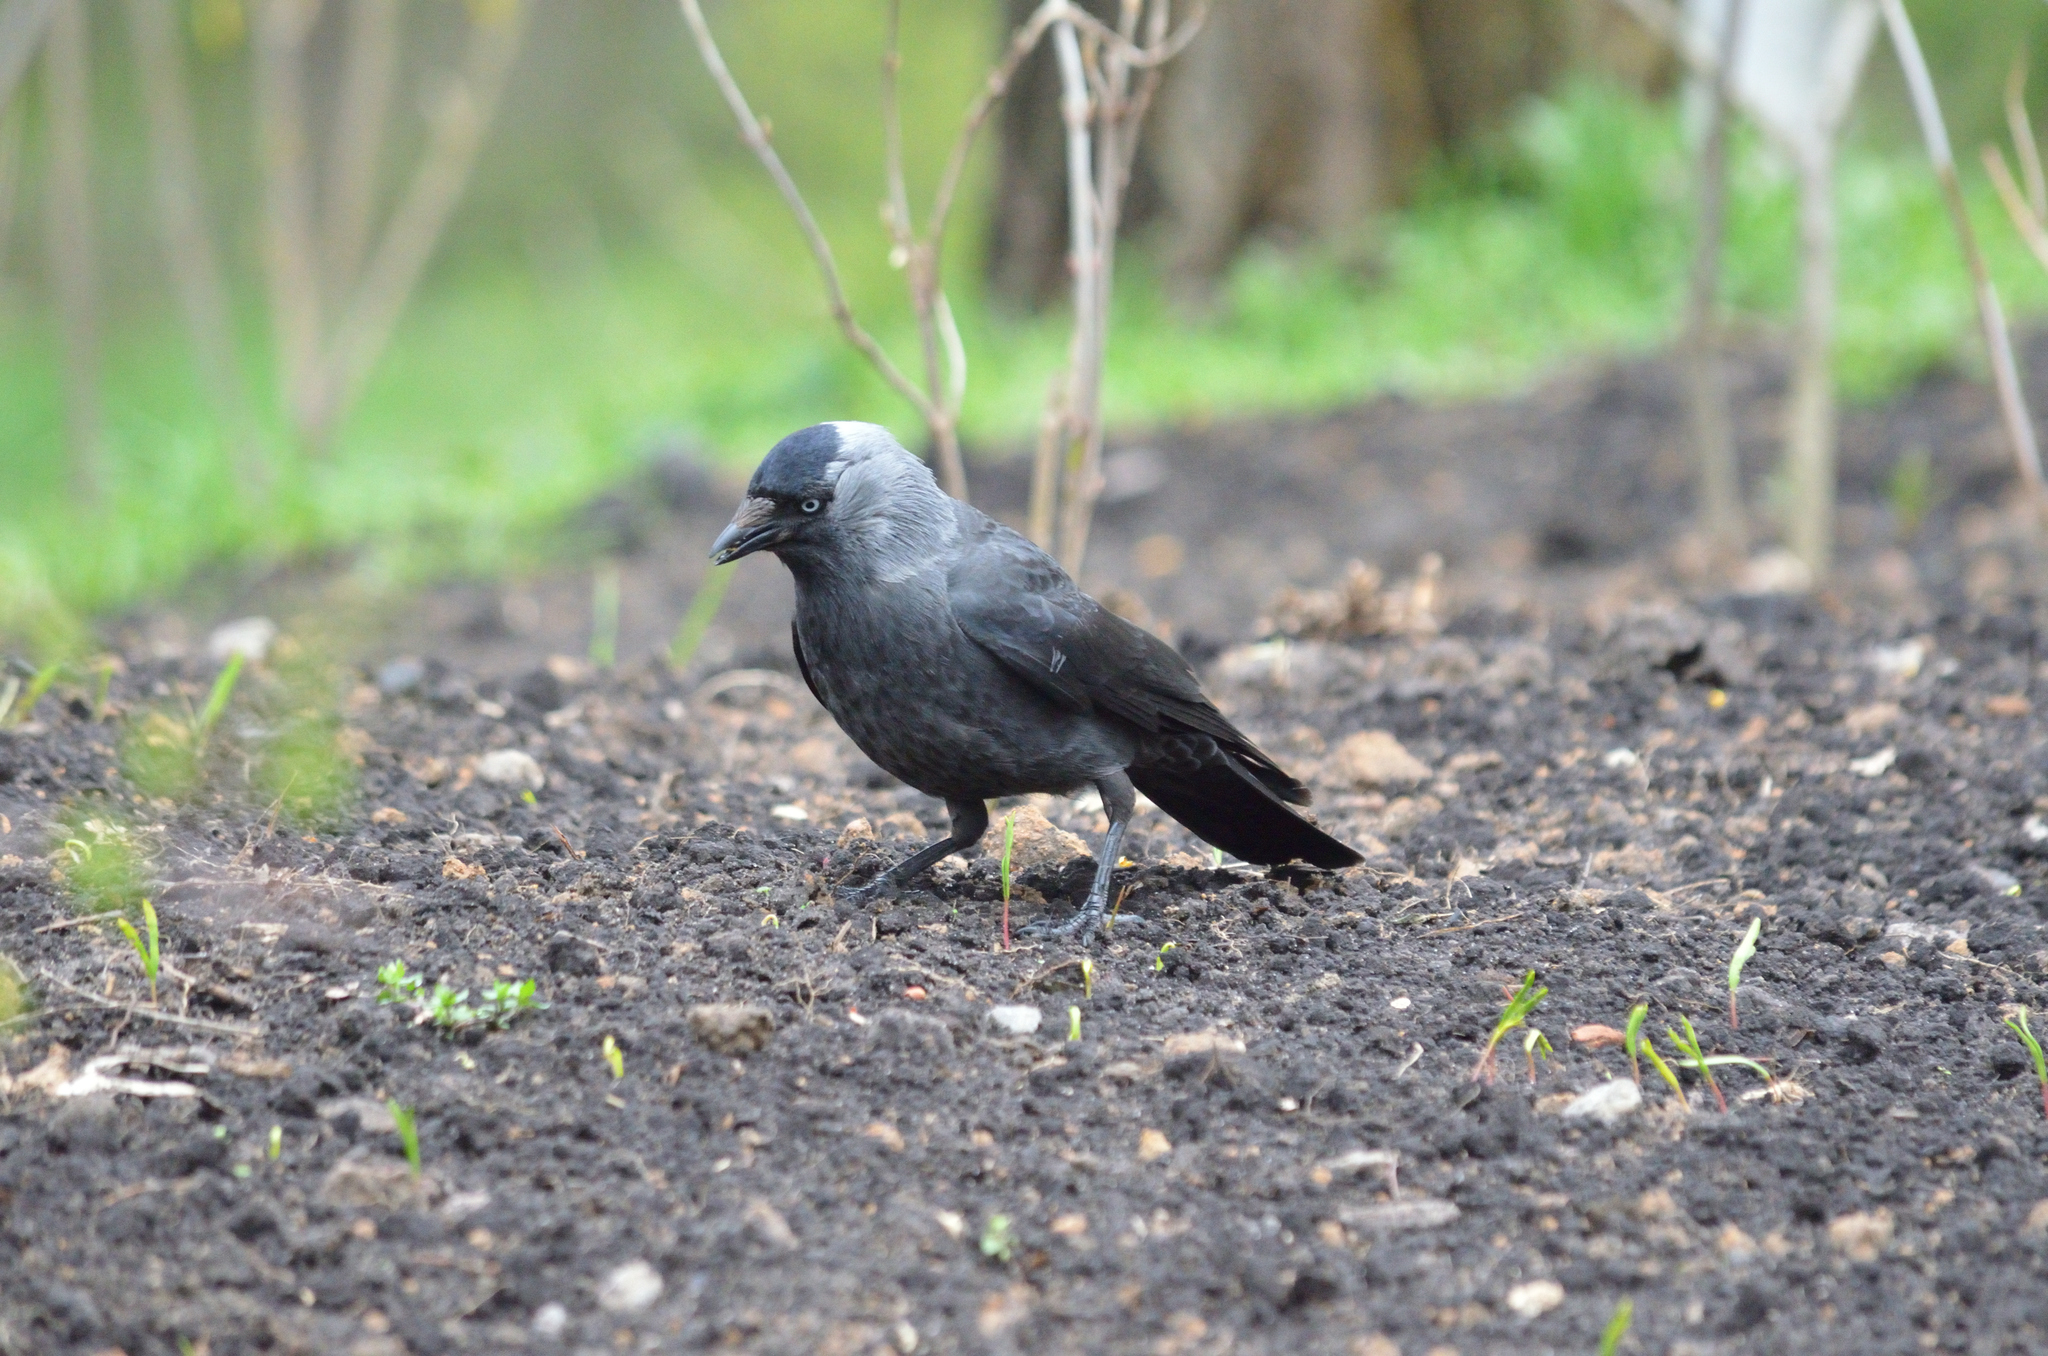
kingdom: Animalia
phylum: Chordata
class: Aves
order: Passeriformes
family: Corvidae
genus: Coloeus
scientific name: Coloeus monedula
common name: Western jackdaw
